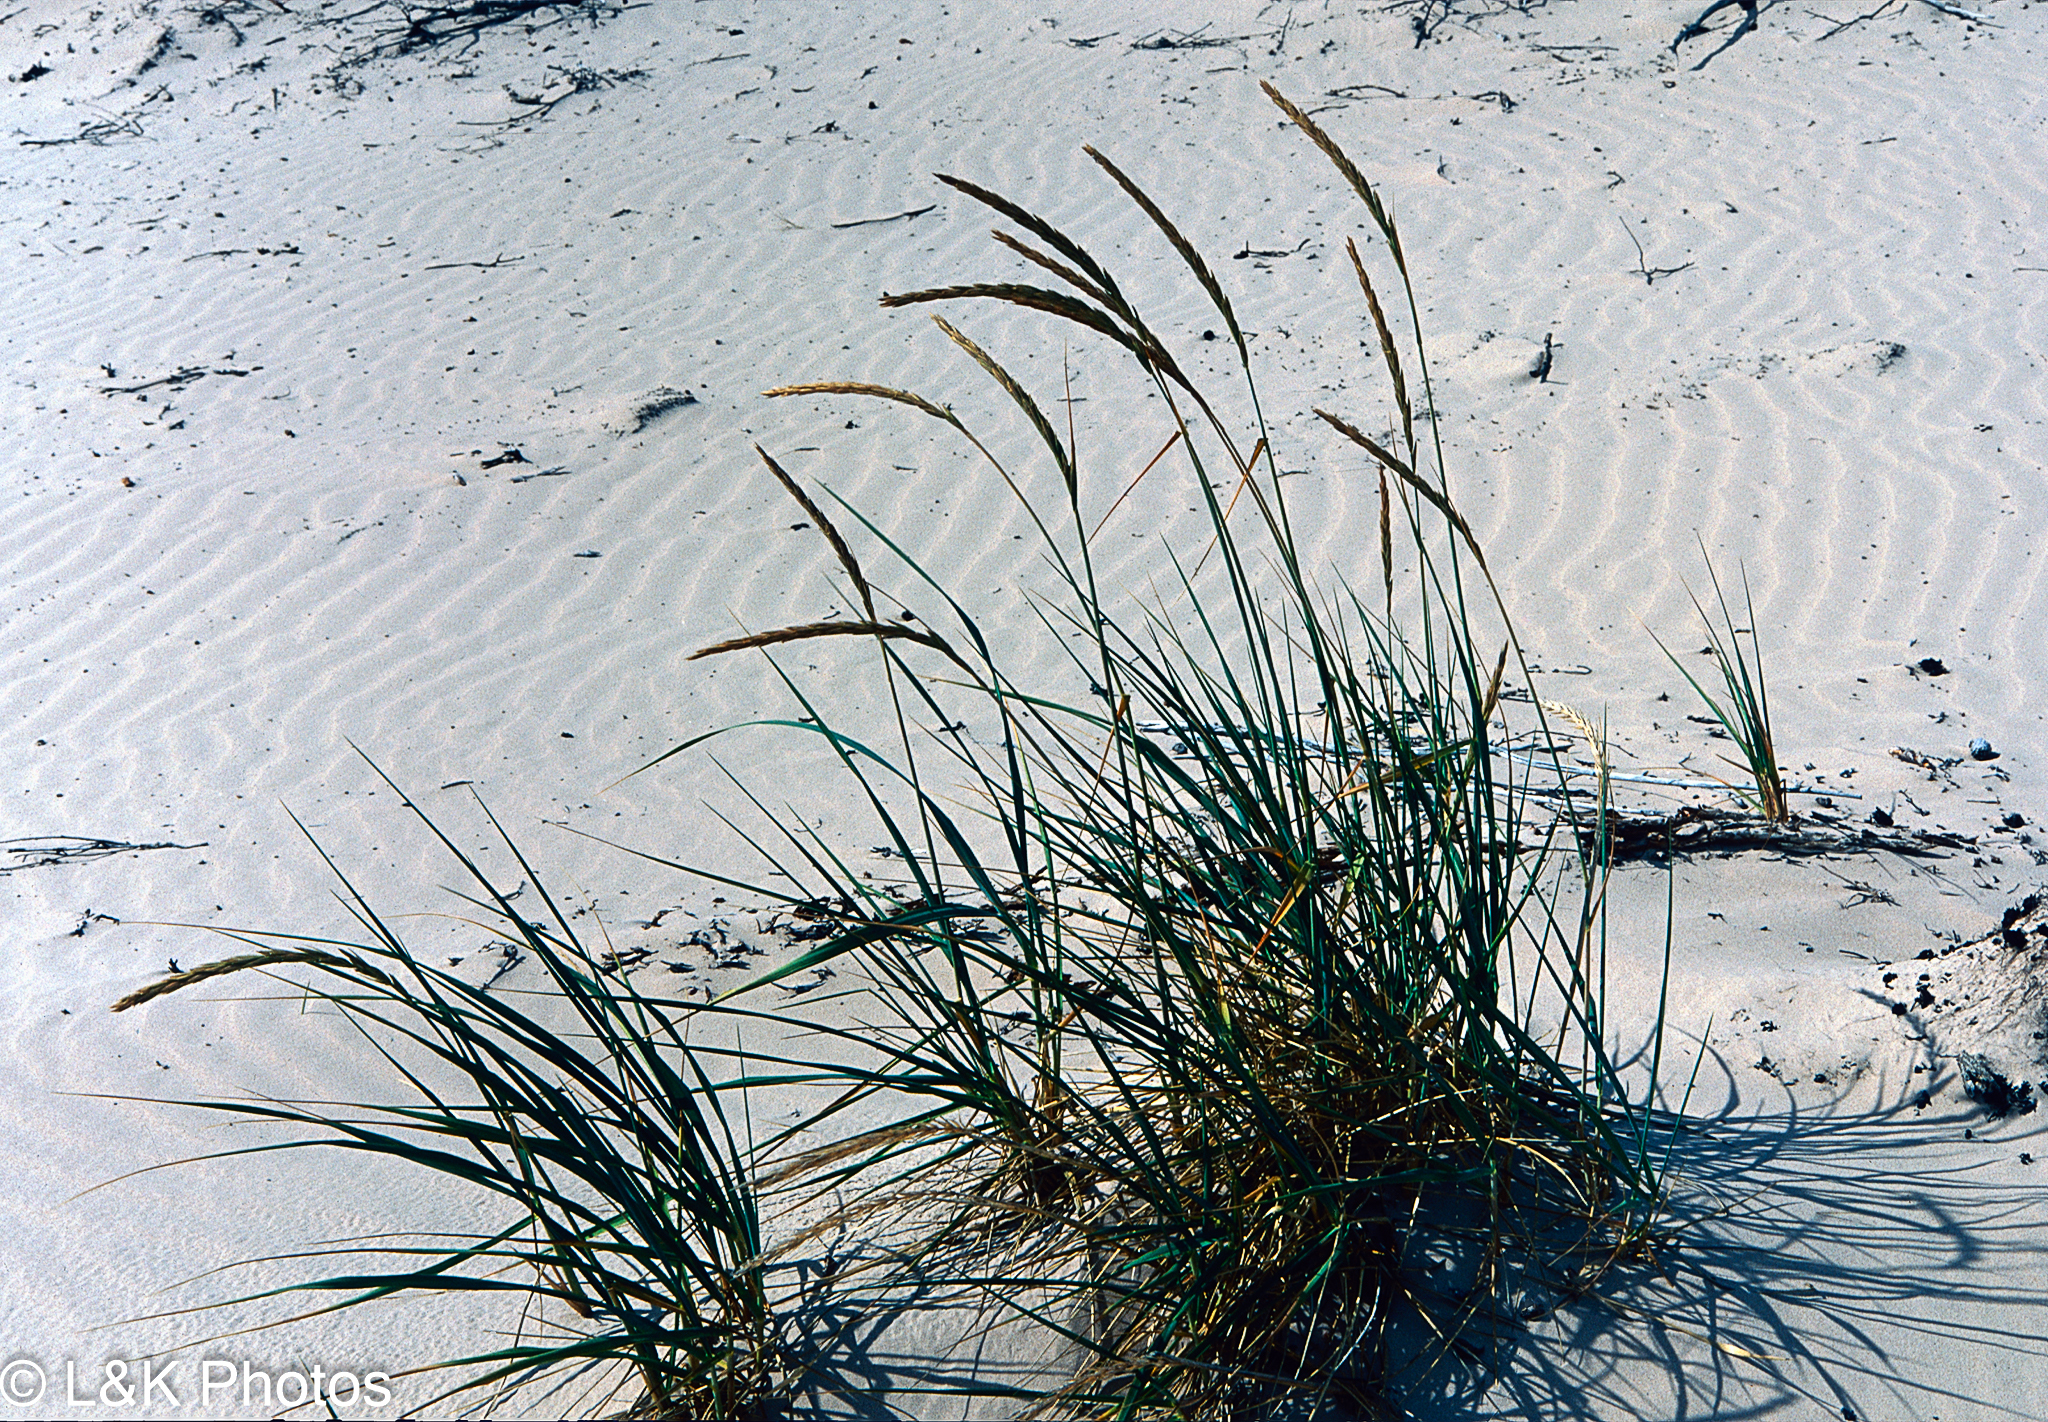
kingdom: Plantae
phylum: Tracheophyta
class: Liliopsida
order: Poales
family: Poaceae
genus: Leymus
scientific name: Leymus mollis
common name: American dune grass
